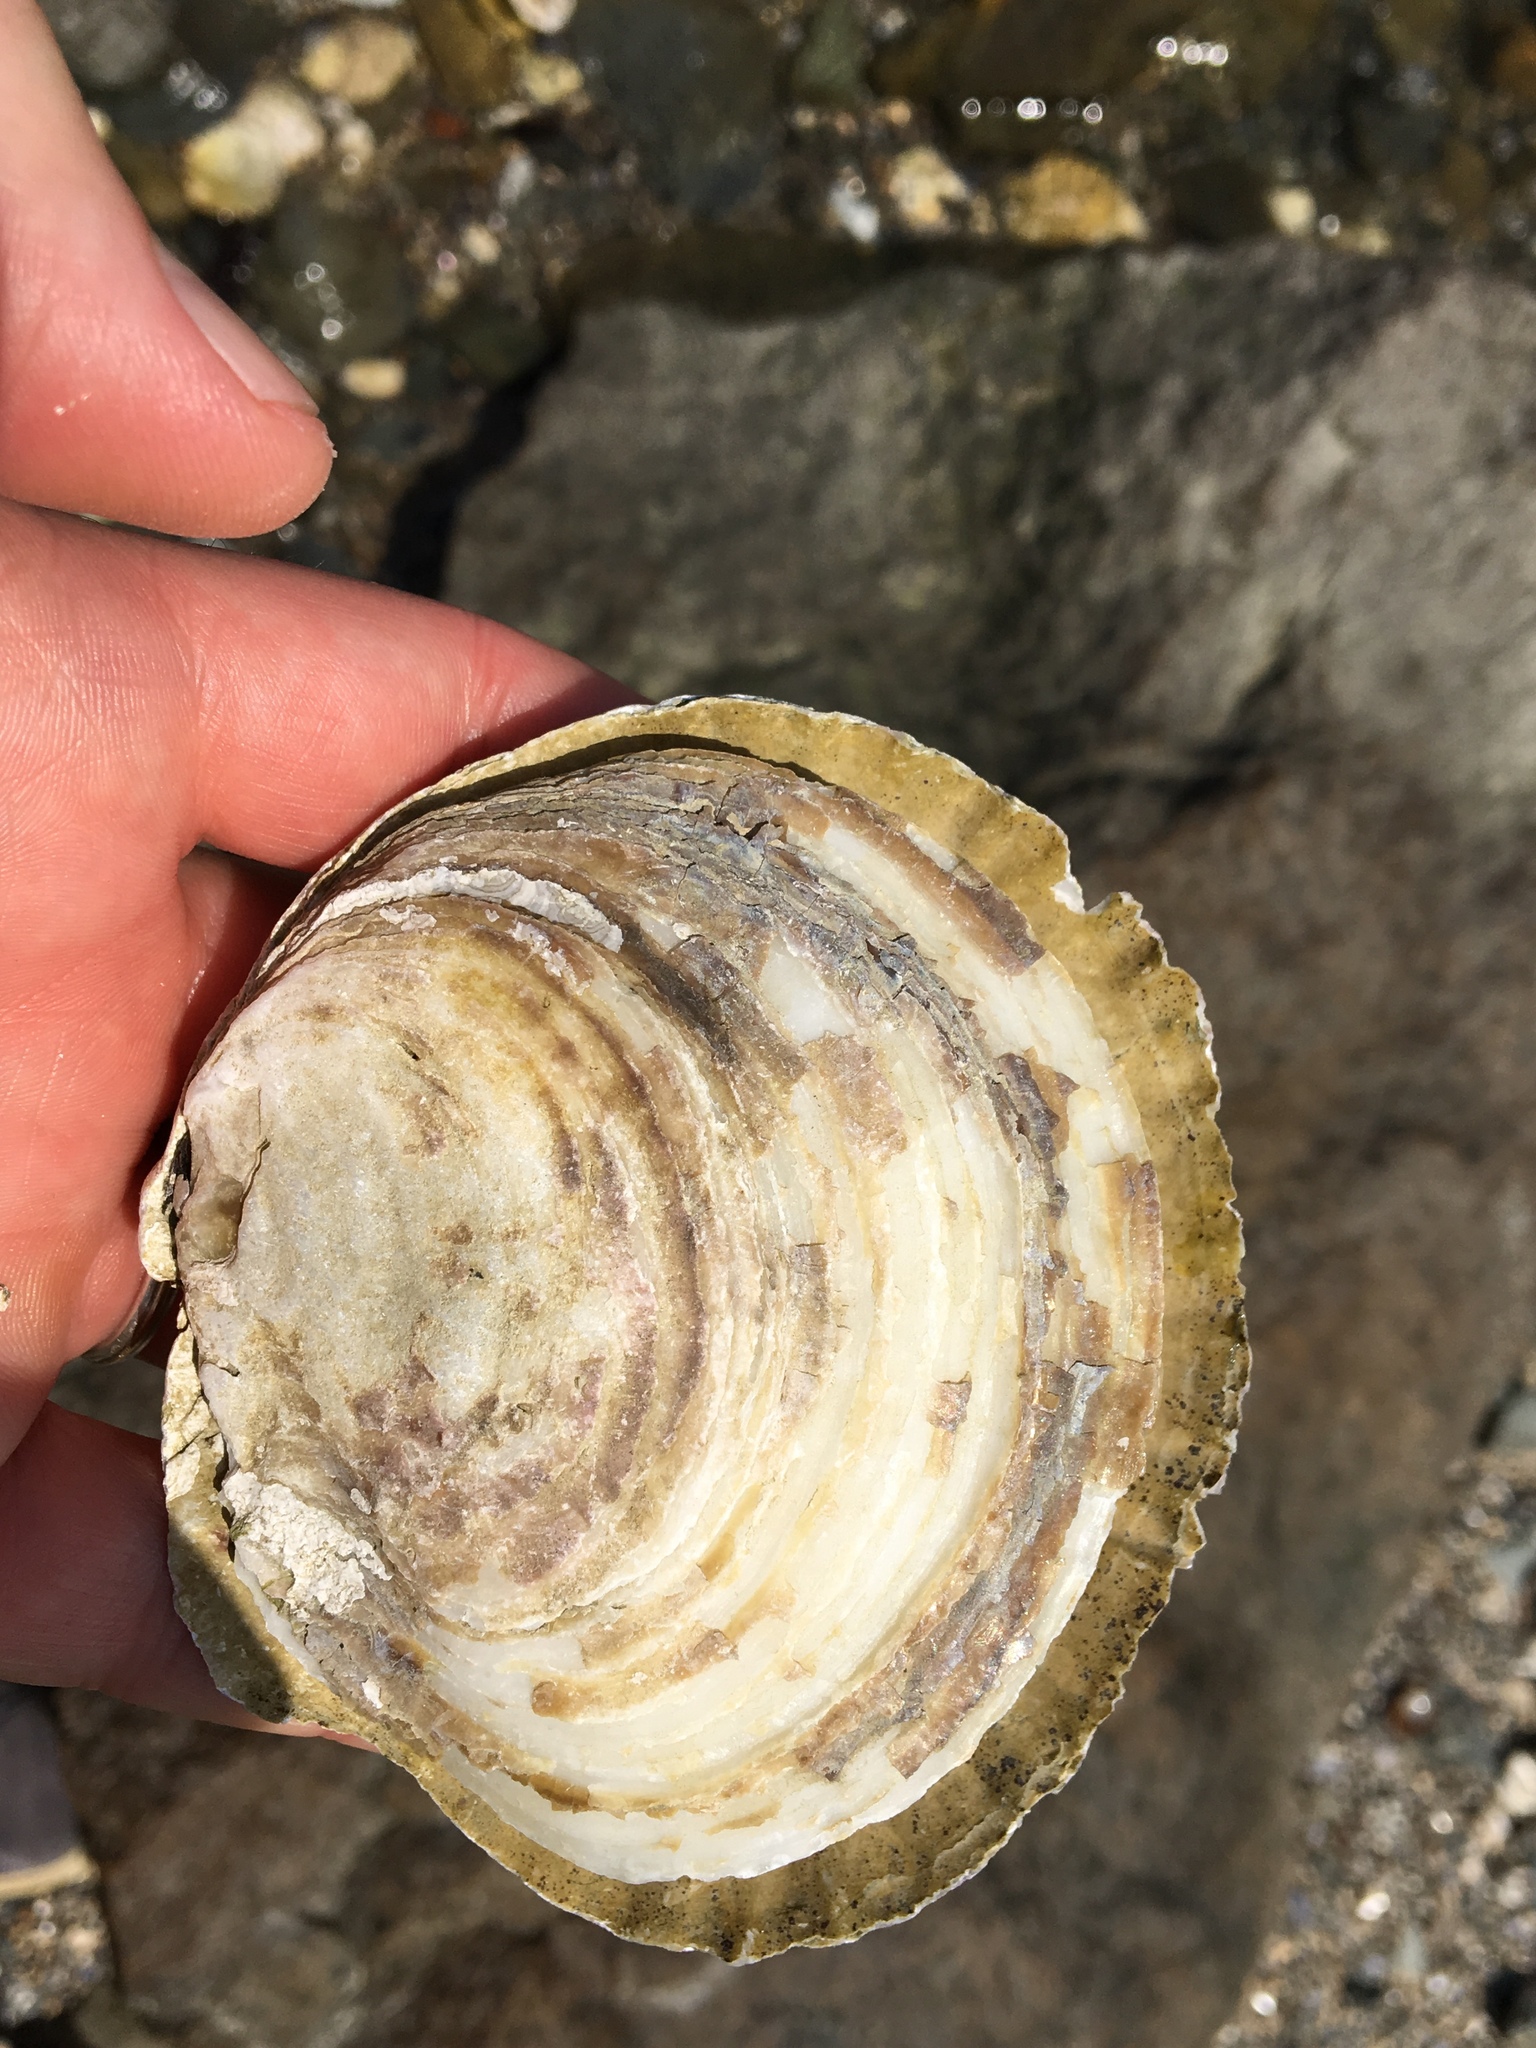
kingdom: Animalia
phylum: Mollusca
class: Bivalvia
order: Ostreida
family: Ostreidae
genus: Ostrea
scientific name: Ostrea edulis
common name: Flat oyster
